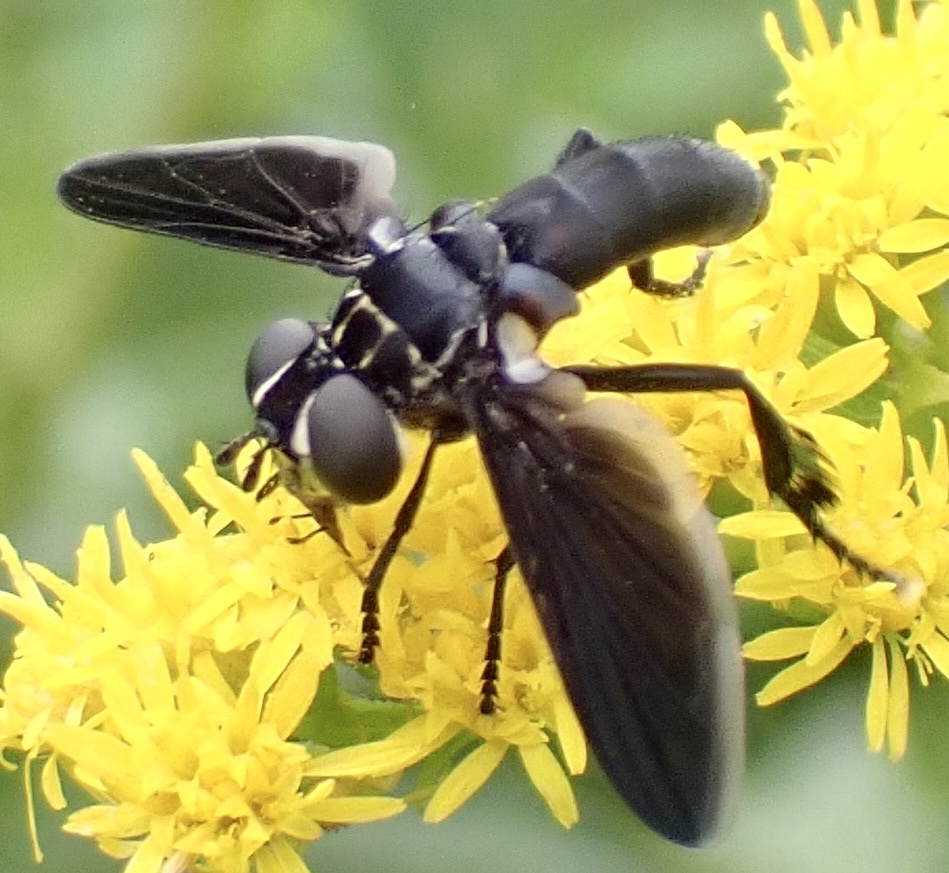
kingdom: Animalia
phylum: Arthropoda
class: Insecta
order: Diptera
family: Tachinidae
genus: Trichopoda
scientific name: Trichopoda lanipes
